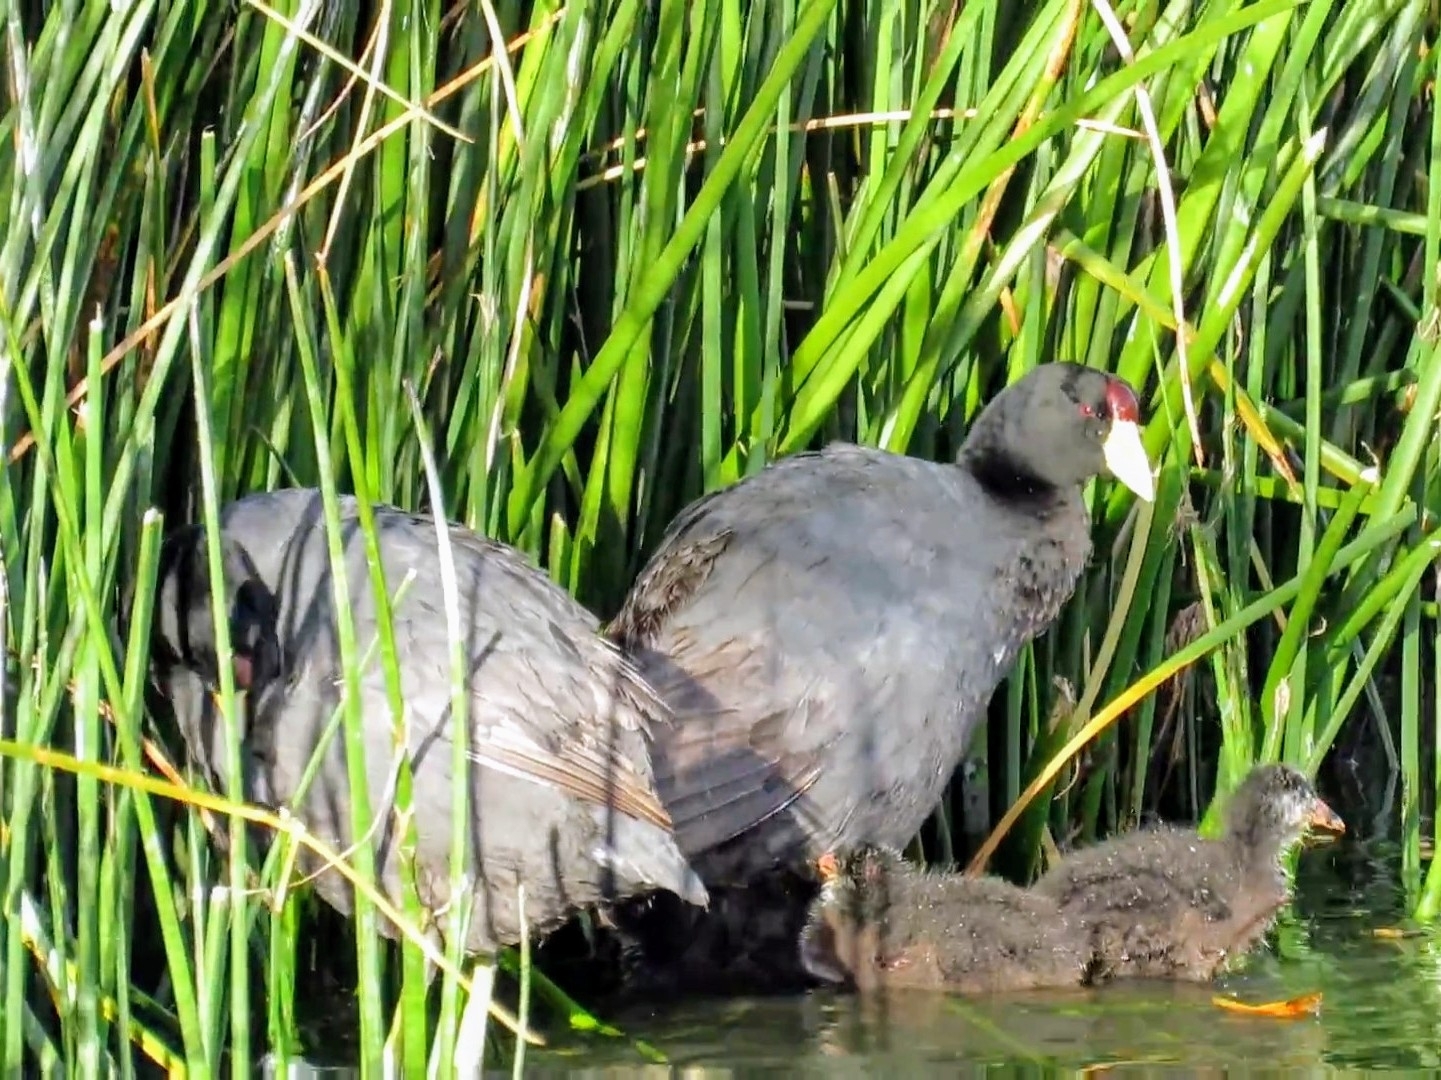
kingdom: Animalia
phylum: Chordata
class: Aves
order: Gruiformes
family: Rallidae
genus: Fulica
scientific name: Fulica gigantea
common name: Giant coot
